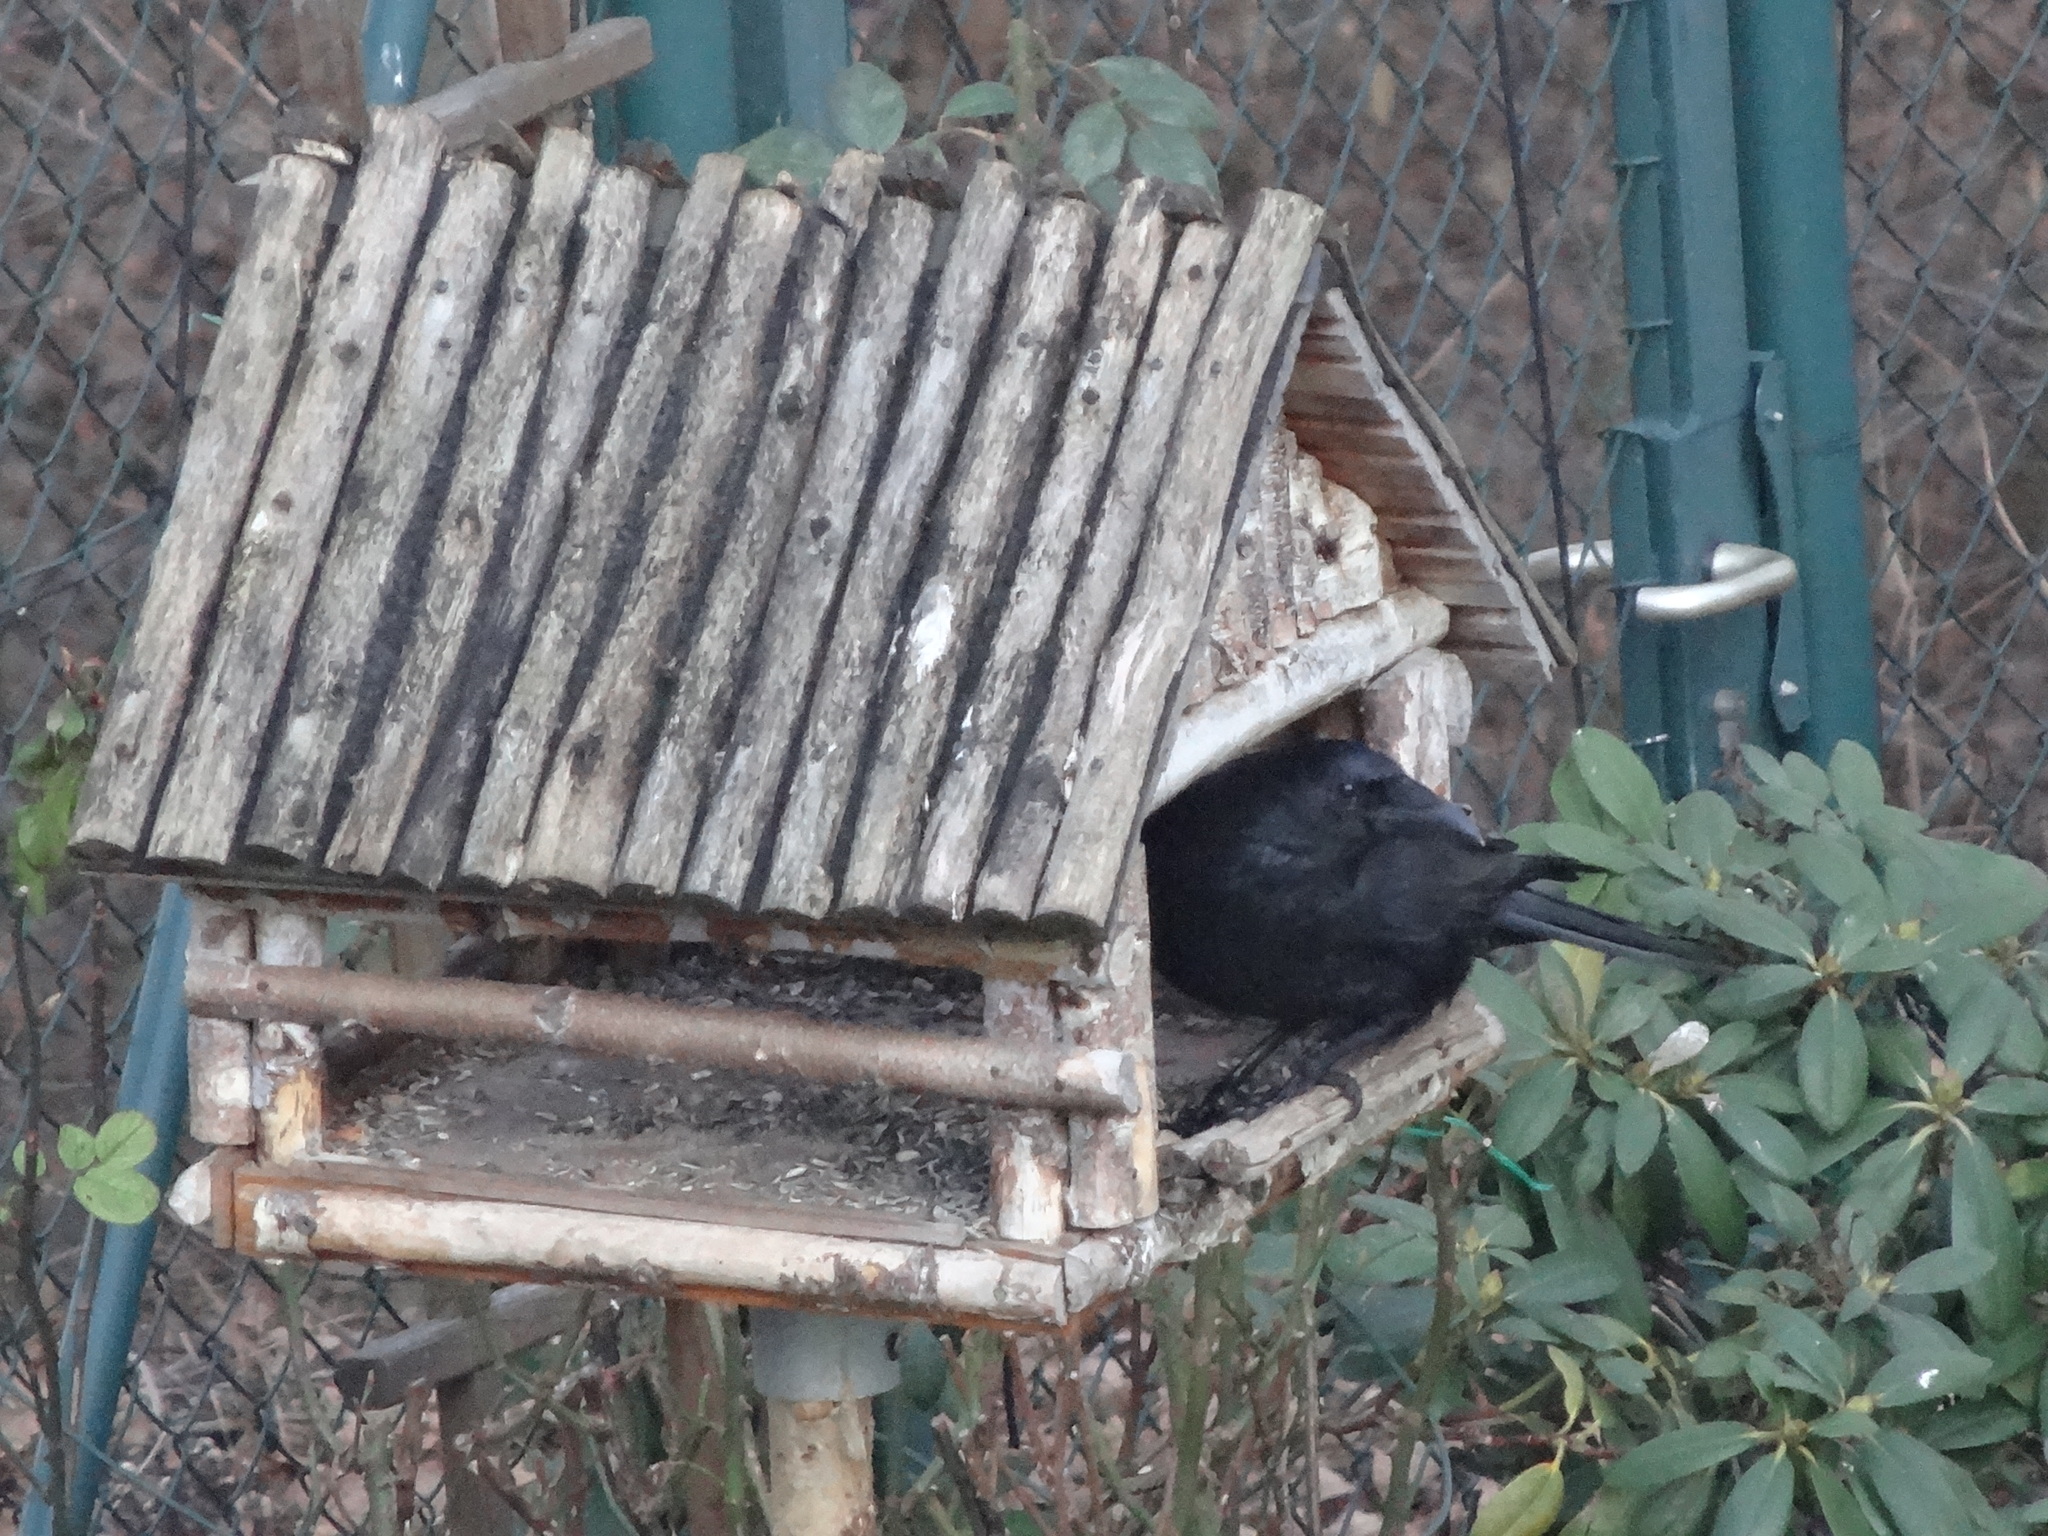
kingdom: Animalia
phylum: Chordata
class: Aves
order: Passeriformes
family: Corvidae
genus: Corvus
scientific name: Corvus corone
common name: Carrion crow
